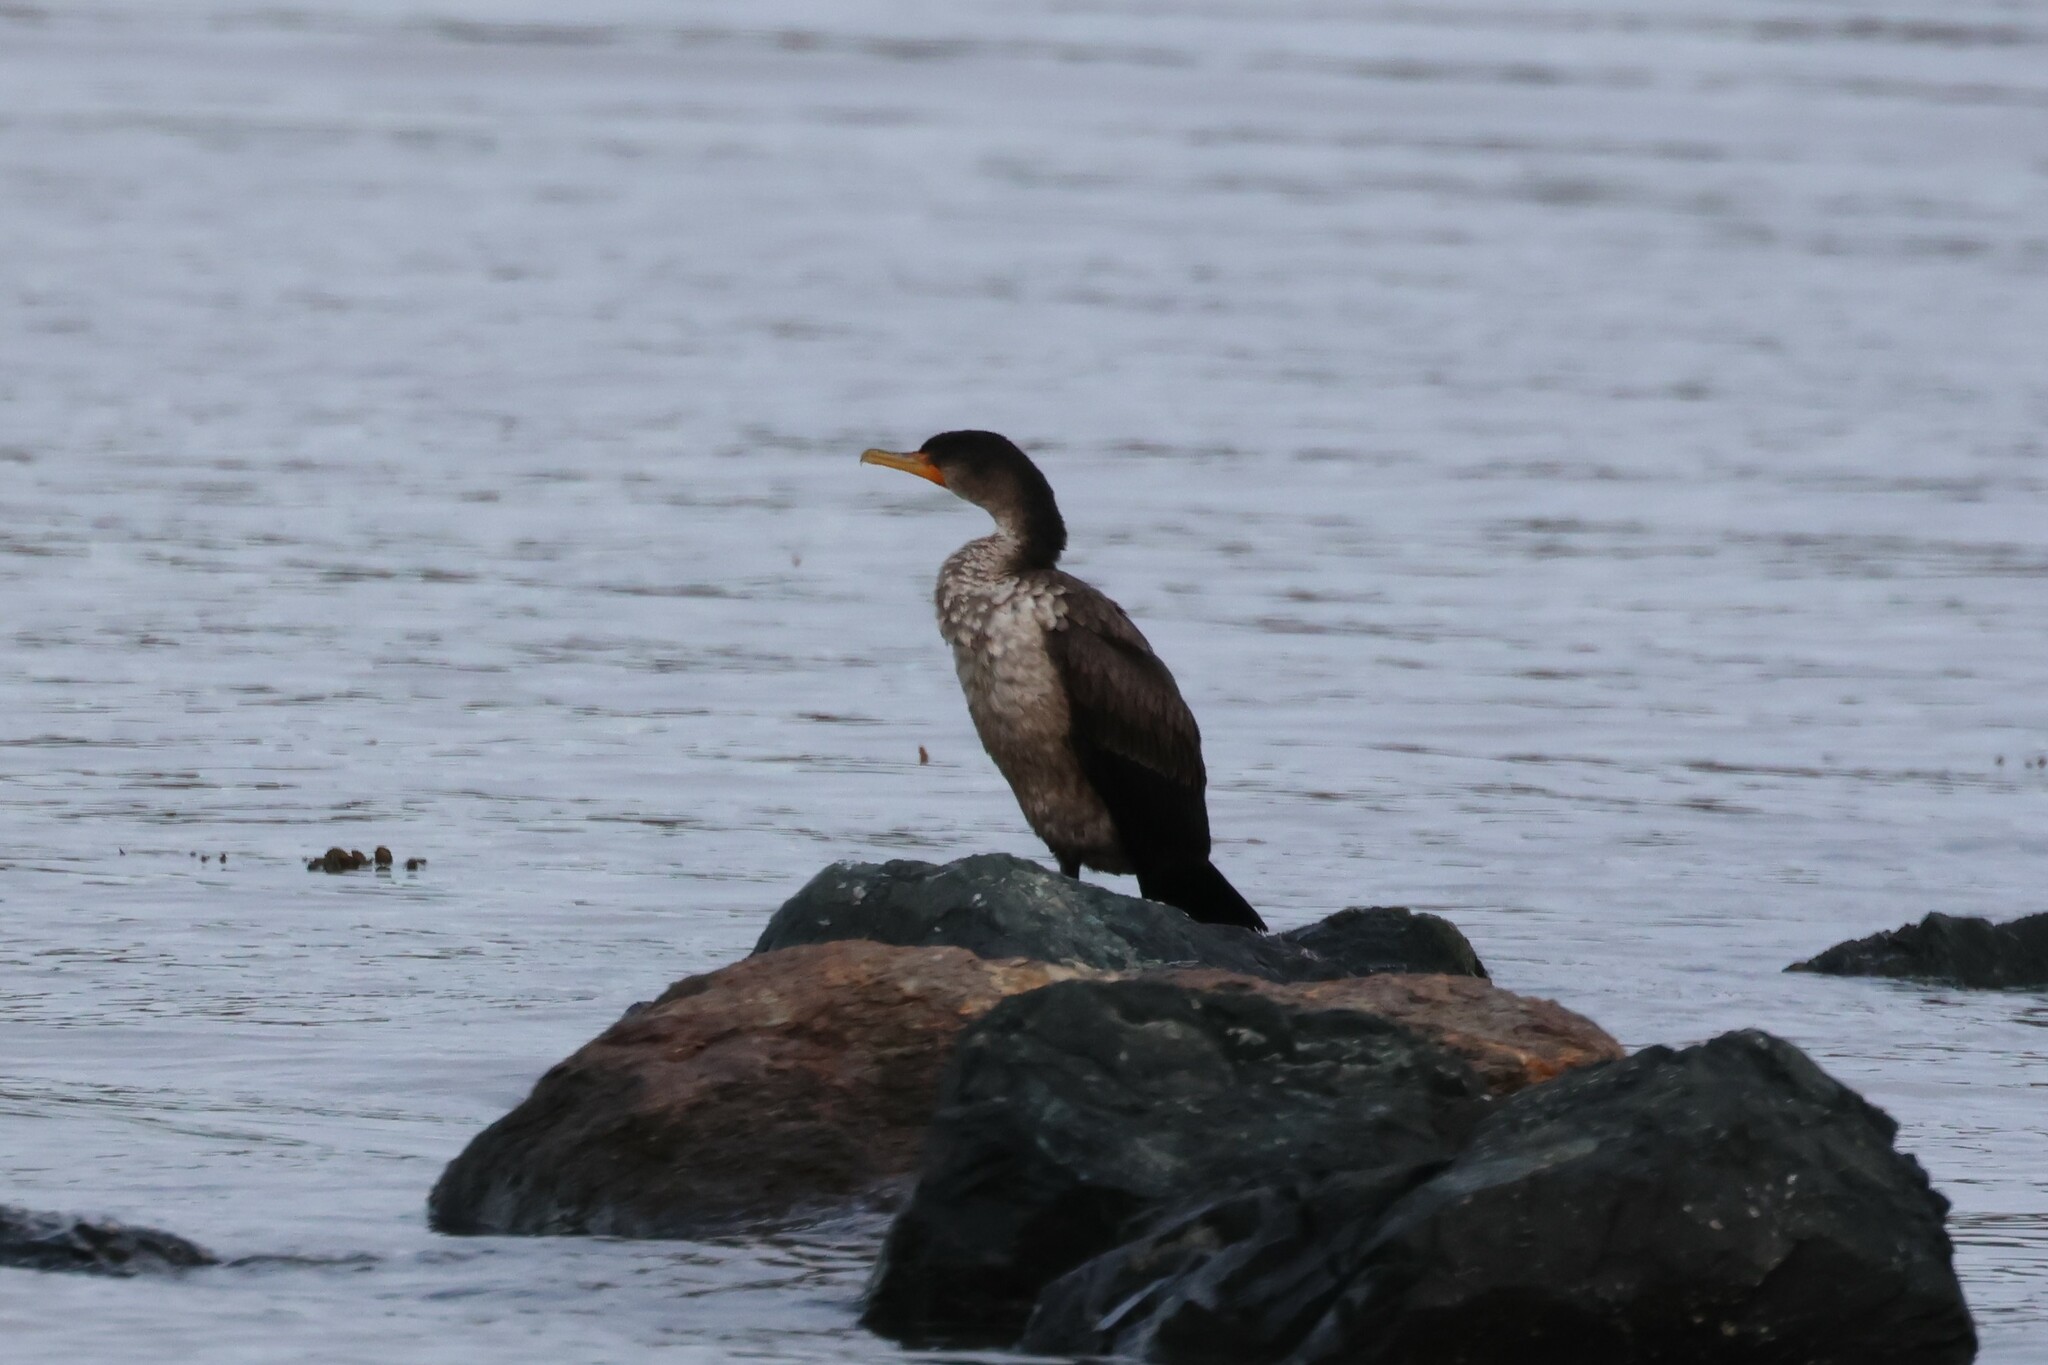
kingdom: Animalia
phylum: Chordata
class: Aves
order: Suliformes
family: Phalacrocoracidae
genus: Phalacrocorax
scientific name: Phalacrocorax auritus
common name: Double-crested cormorant
